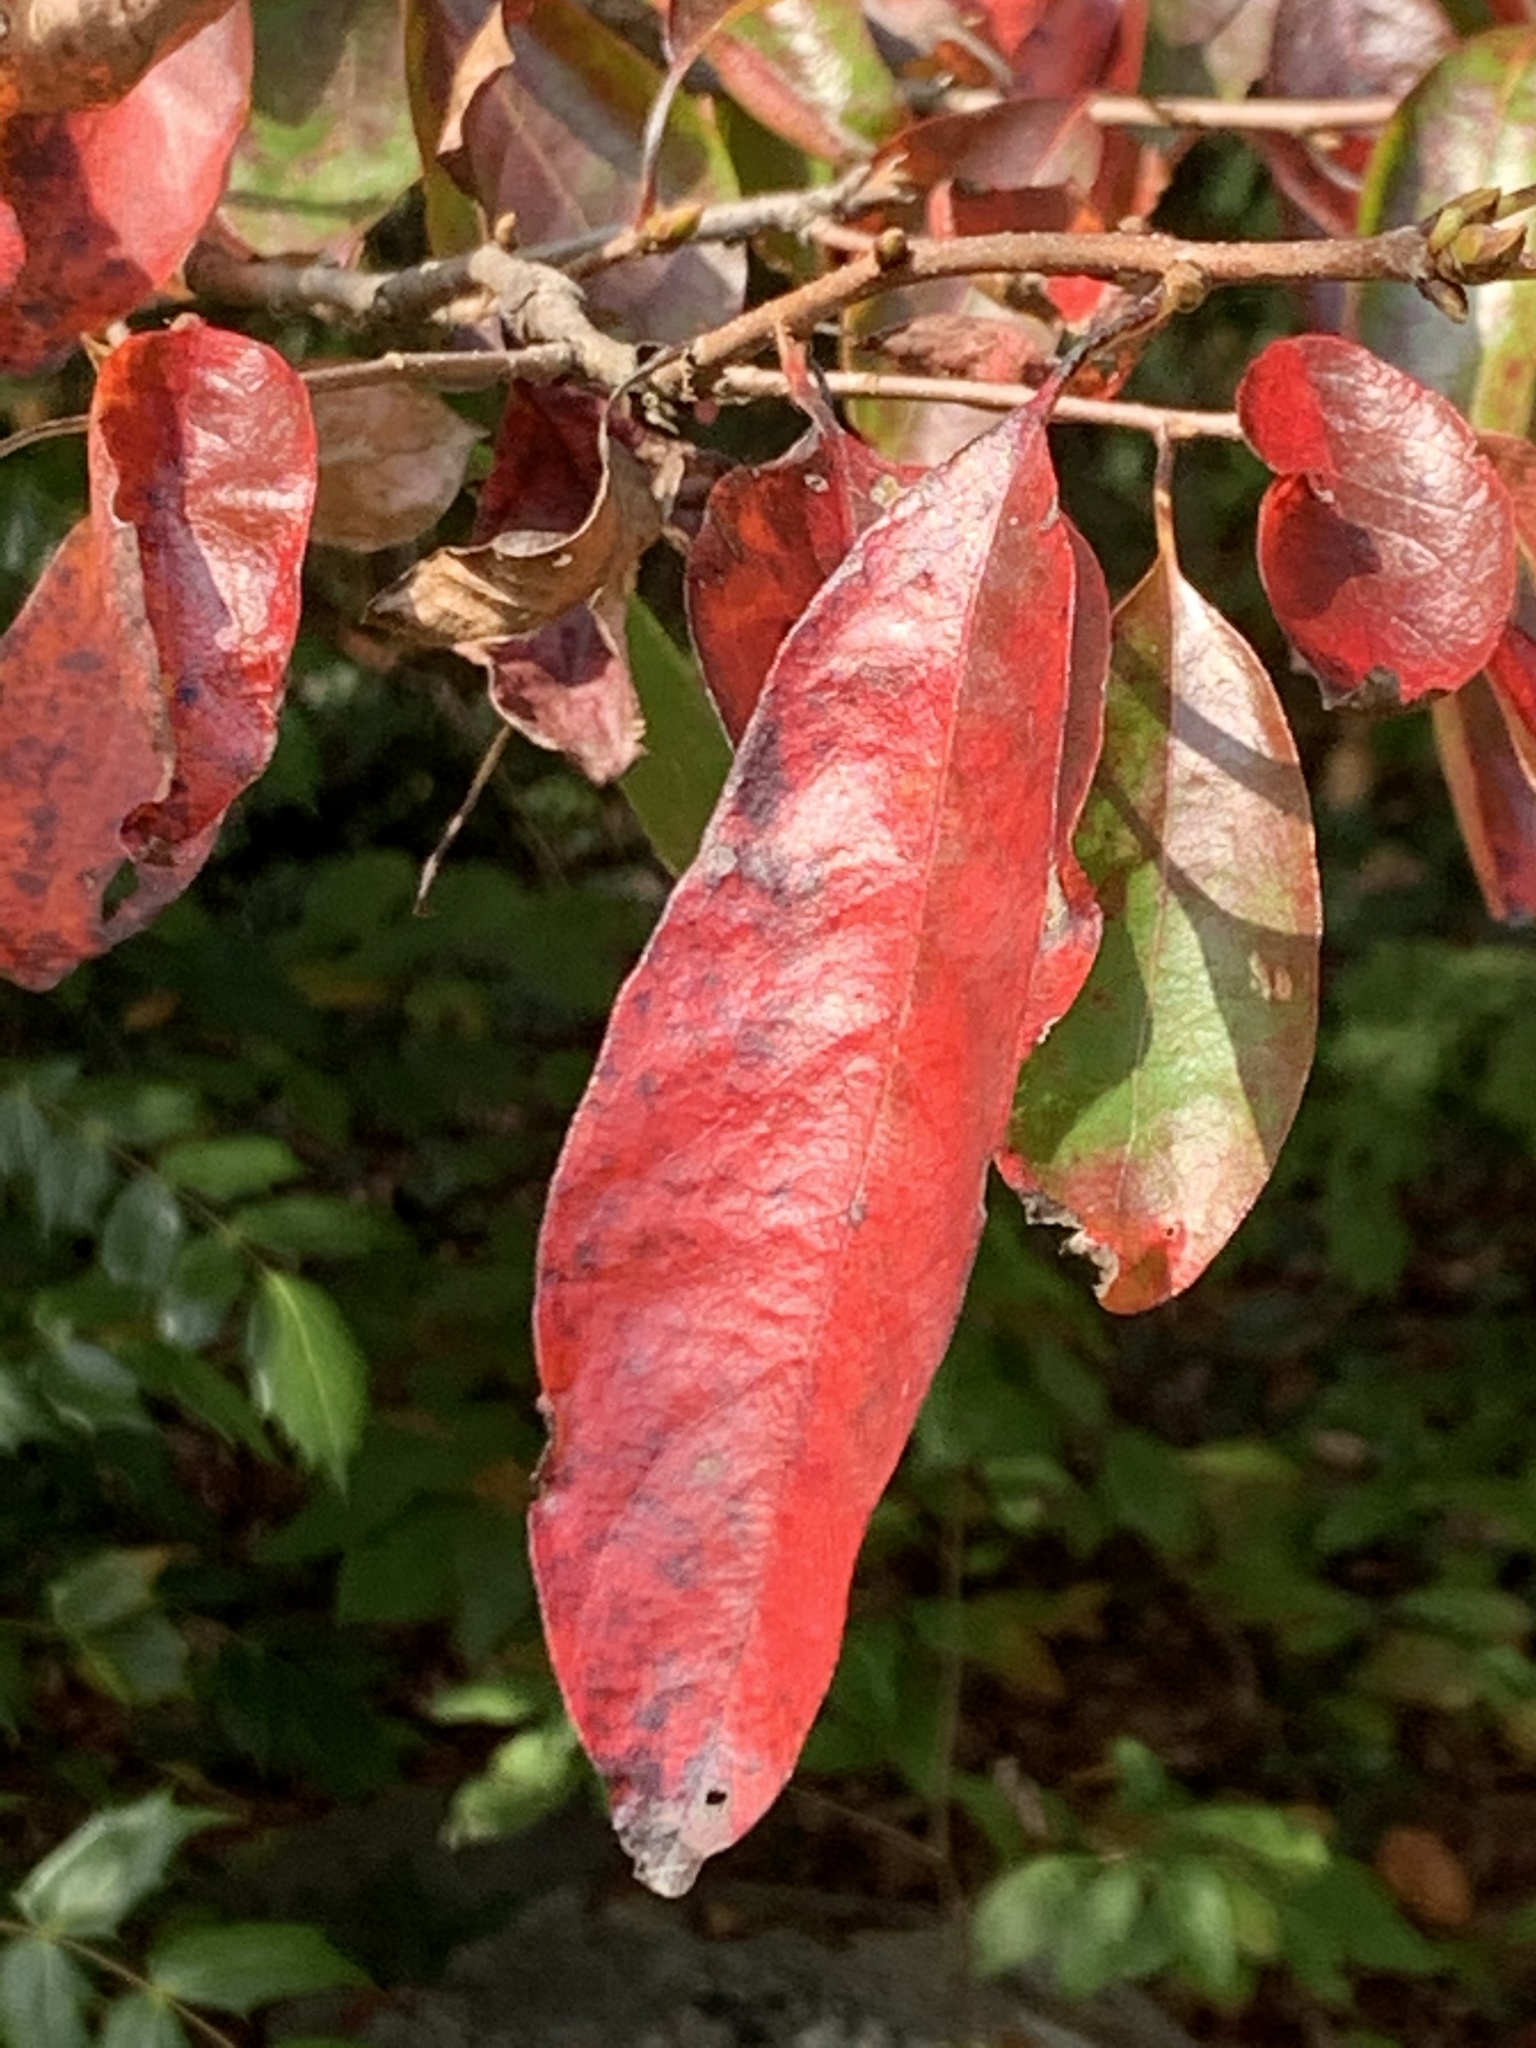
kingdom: Plantae
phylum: Tracheophyta
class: Magnoliopsida
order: Cornales
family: Nyssaceae
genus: Nyssa
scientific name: Nyssa sylvatica
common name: Black tupelo
